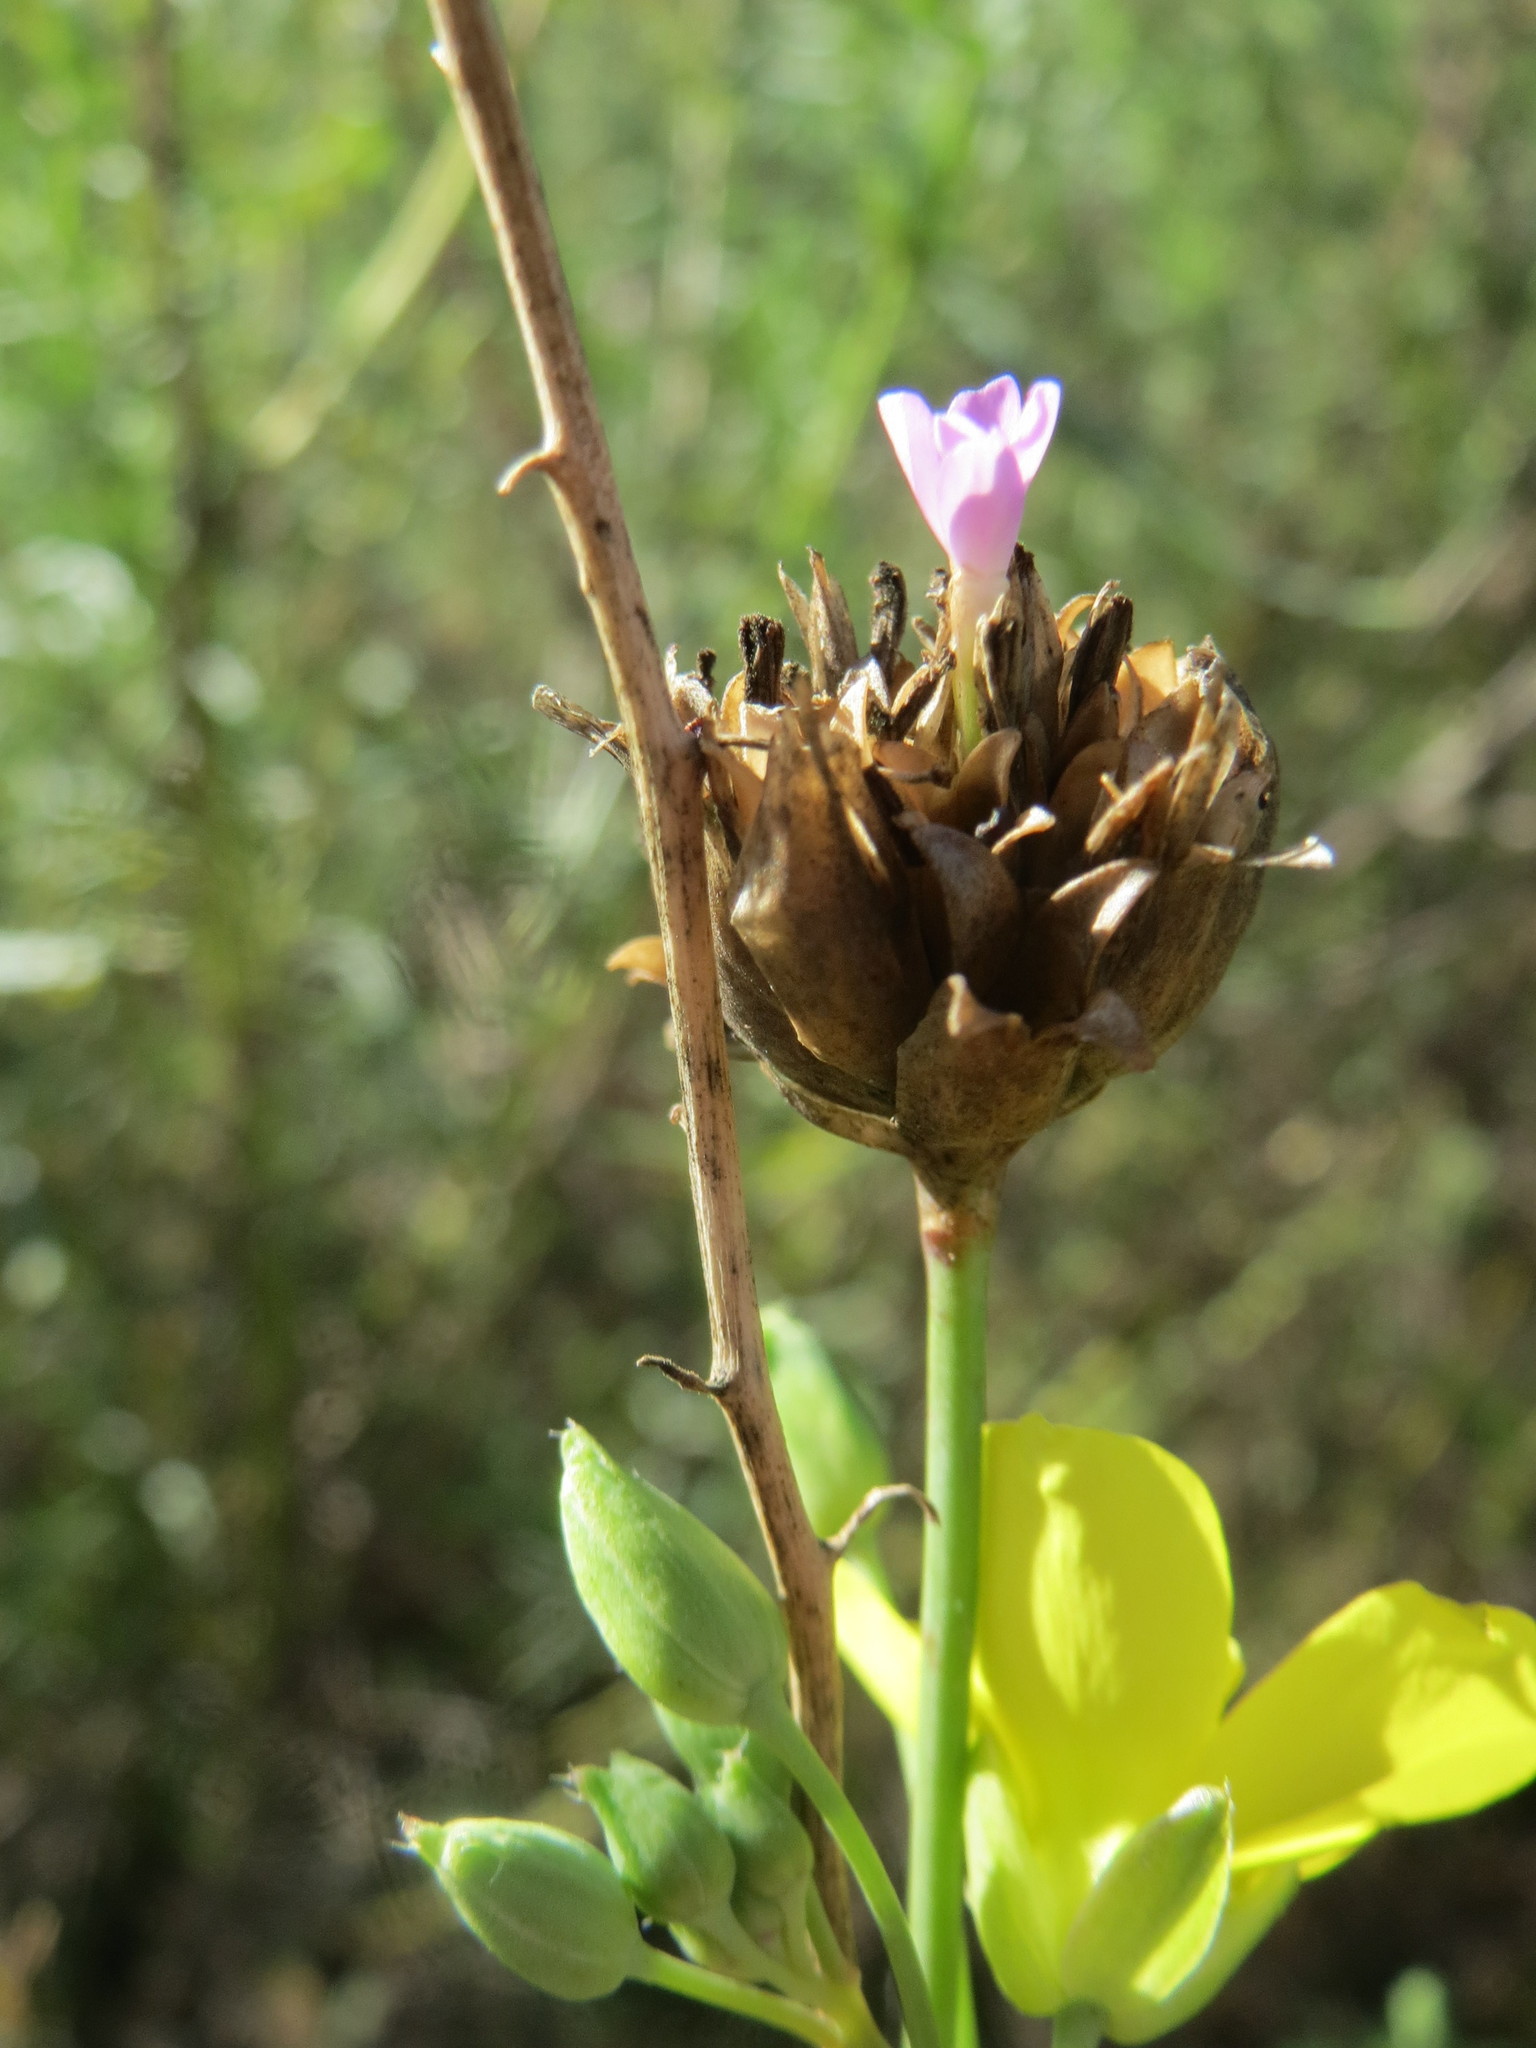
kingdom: Plantae
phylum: Tracheophyta
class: Magnoliopsida
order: Caryophyllales
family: Caryophyllaceae
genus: Petrorhagia
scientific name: Petrorhagia prolifera
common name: Proliferous pink
